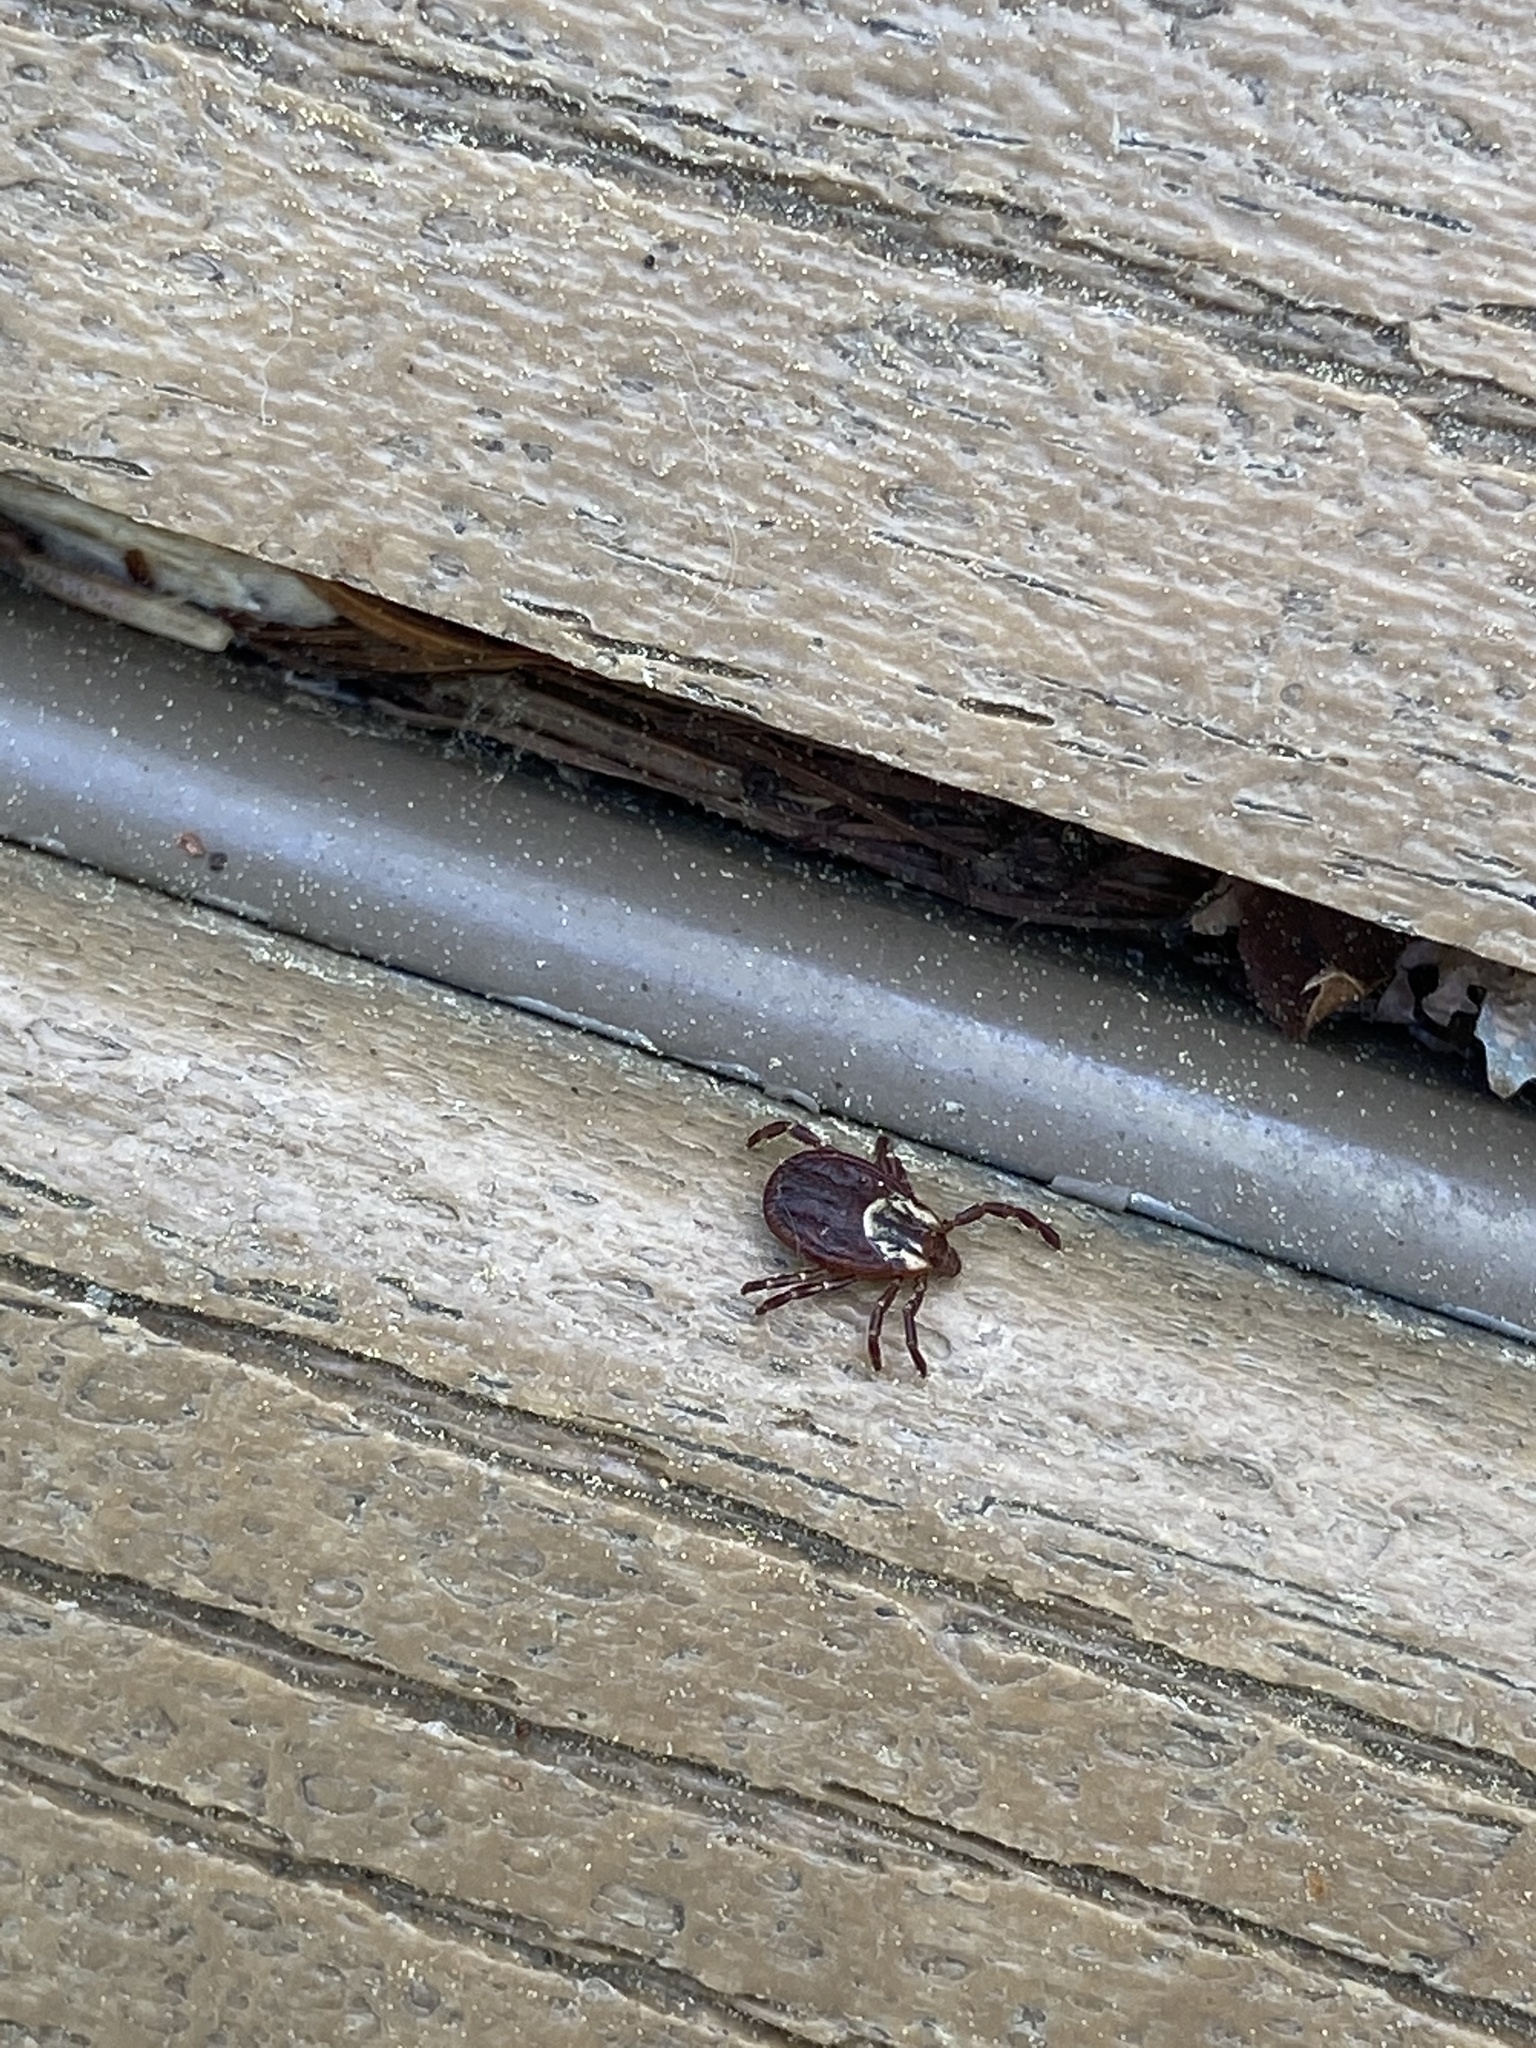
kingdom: Animalia
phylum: Arthropoda
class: Arachnida
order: Ixodida
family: Ixodidae
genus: Dermacentor
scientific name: Dermacentor variabilis
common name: American dog tick
